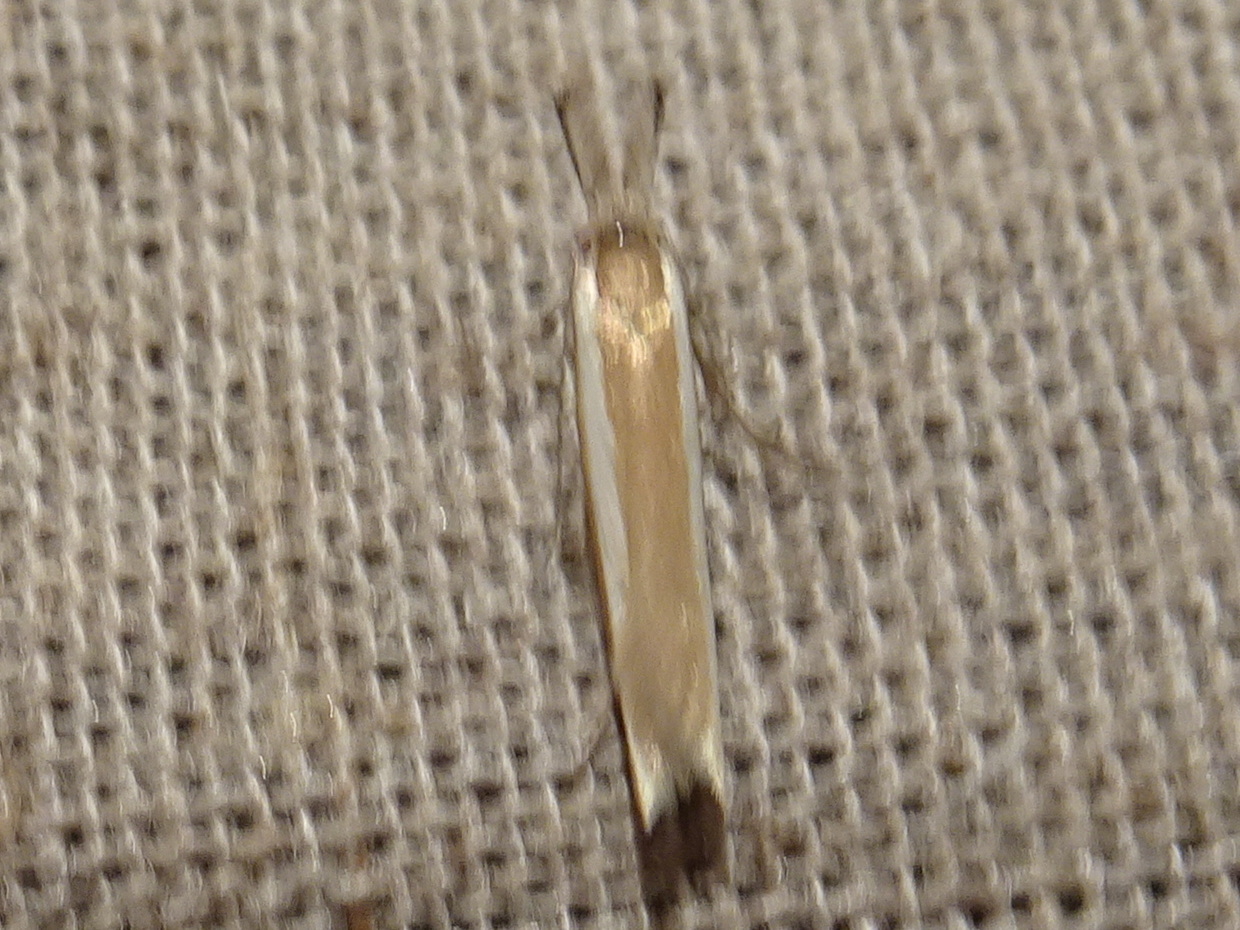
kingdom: Animalia
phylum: Arthropoda
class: Insecta
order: Lepidoptera
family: Oecophoridae
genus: Pleurota
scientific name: Pleurota aristella
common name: Southern streak
